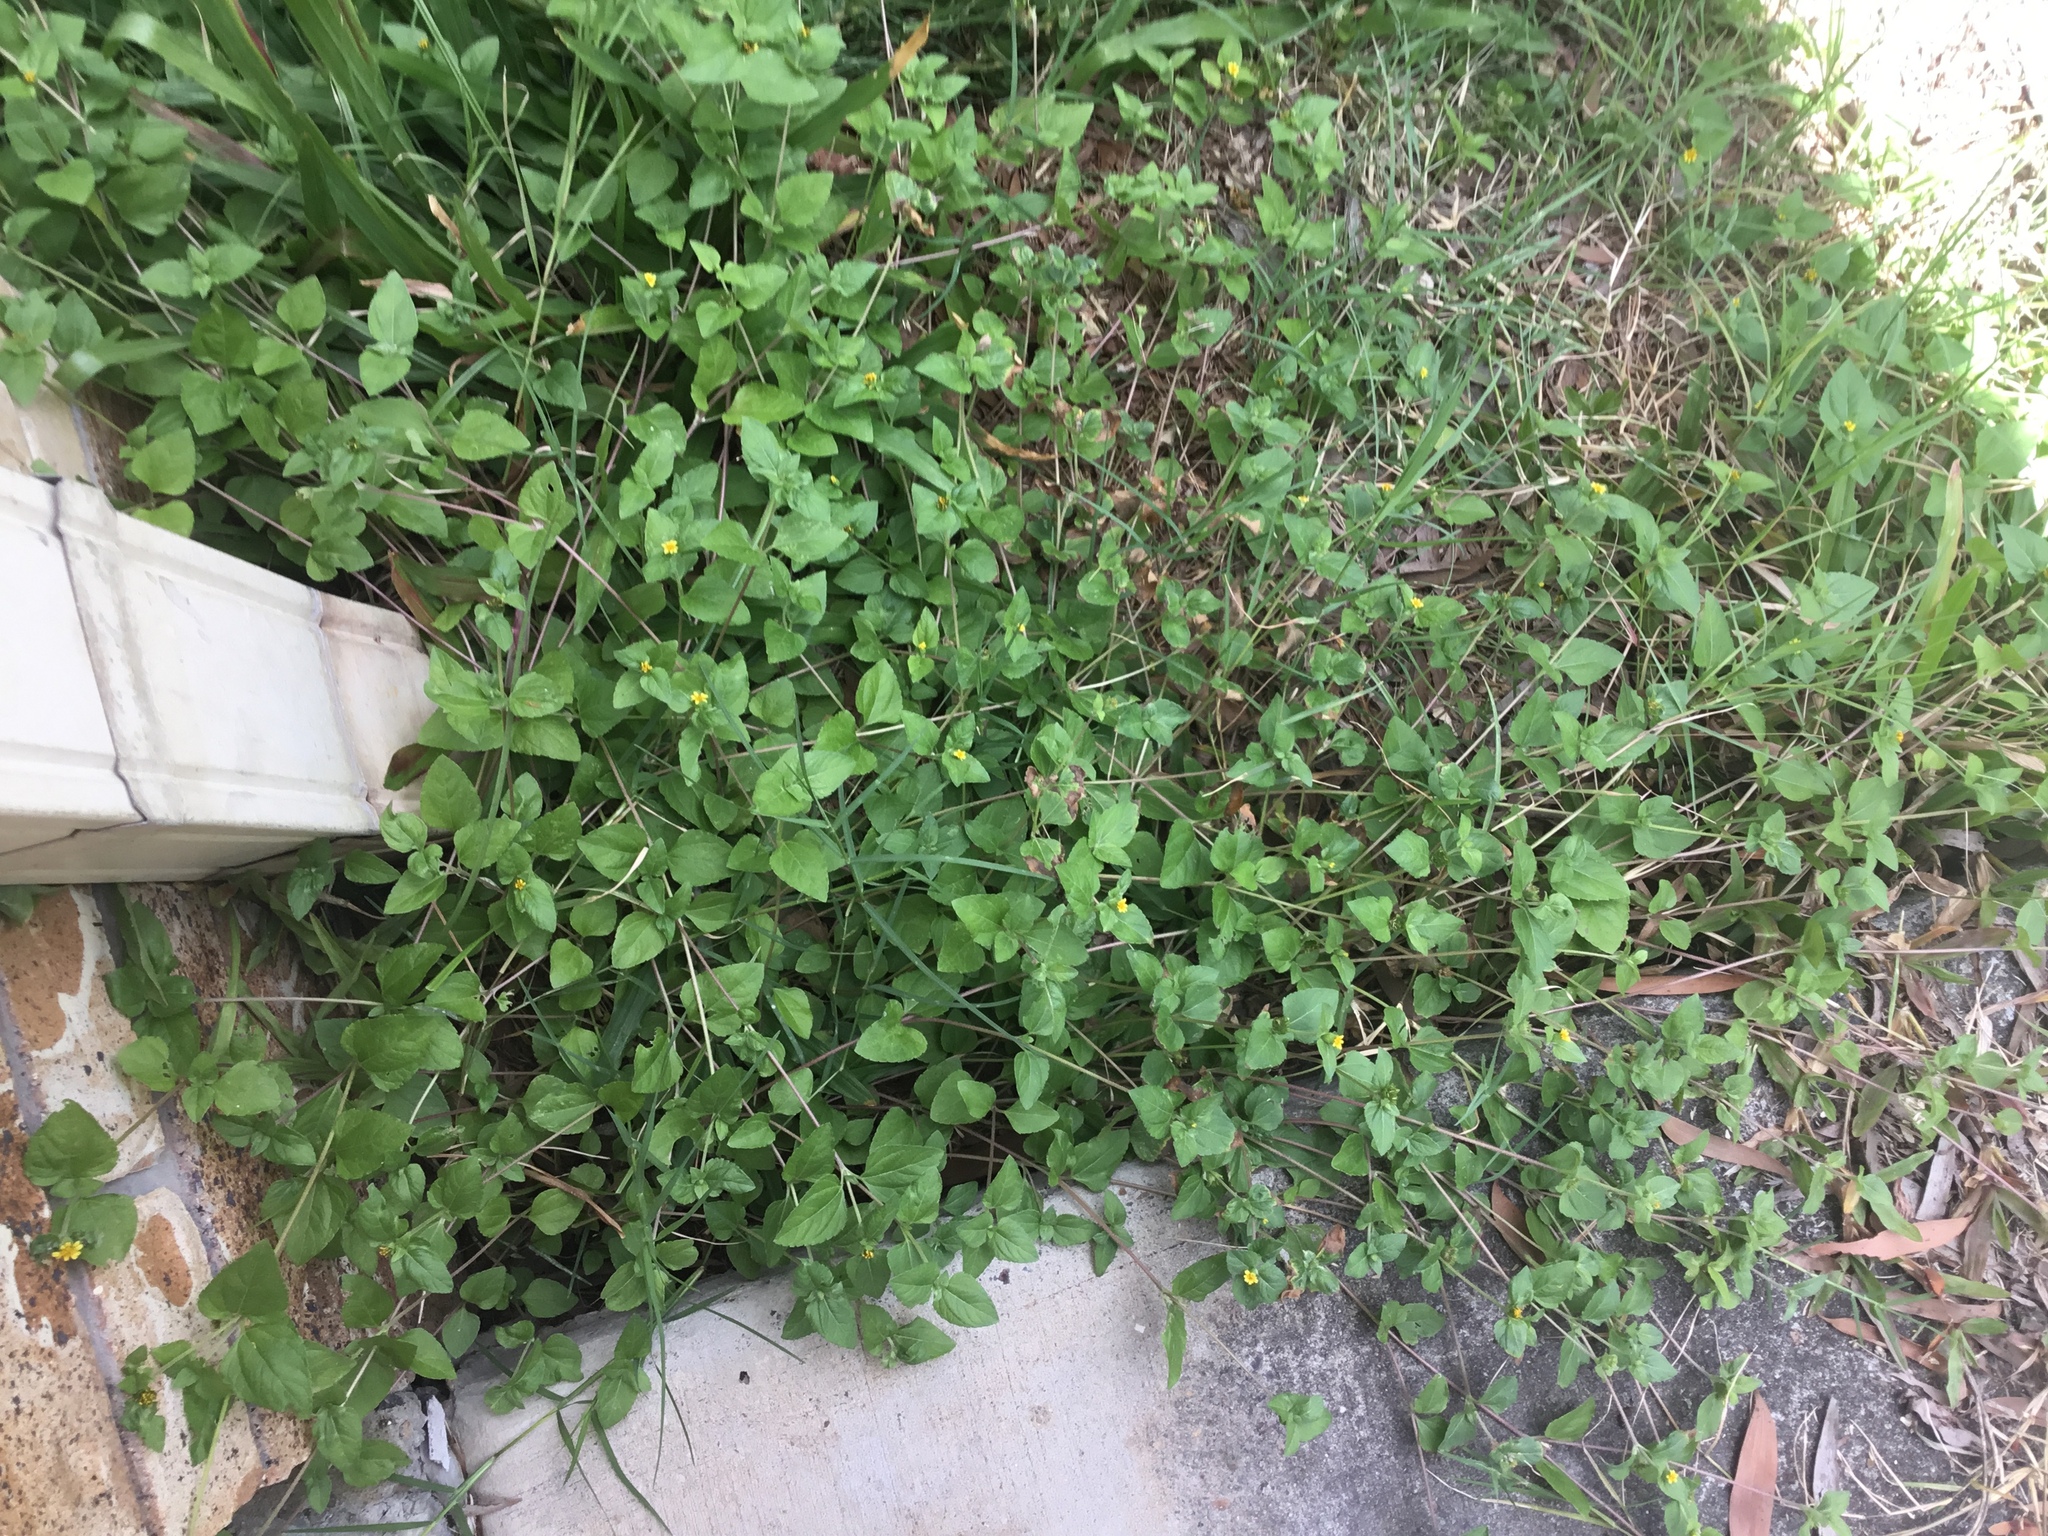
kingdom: Plantae
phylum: Tracheophyta
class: Magnoliopsida
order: Asterales
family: Asteraceae
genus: Calyptocarpus
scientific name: Calyptocarpus vialis
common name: Straggler daisy
